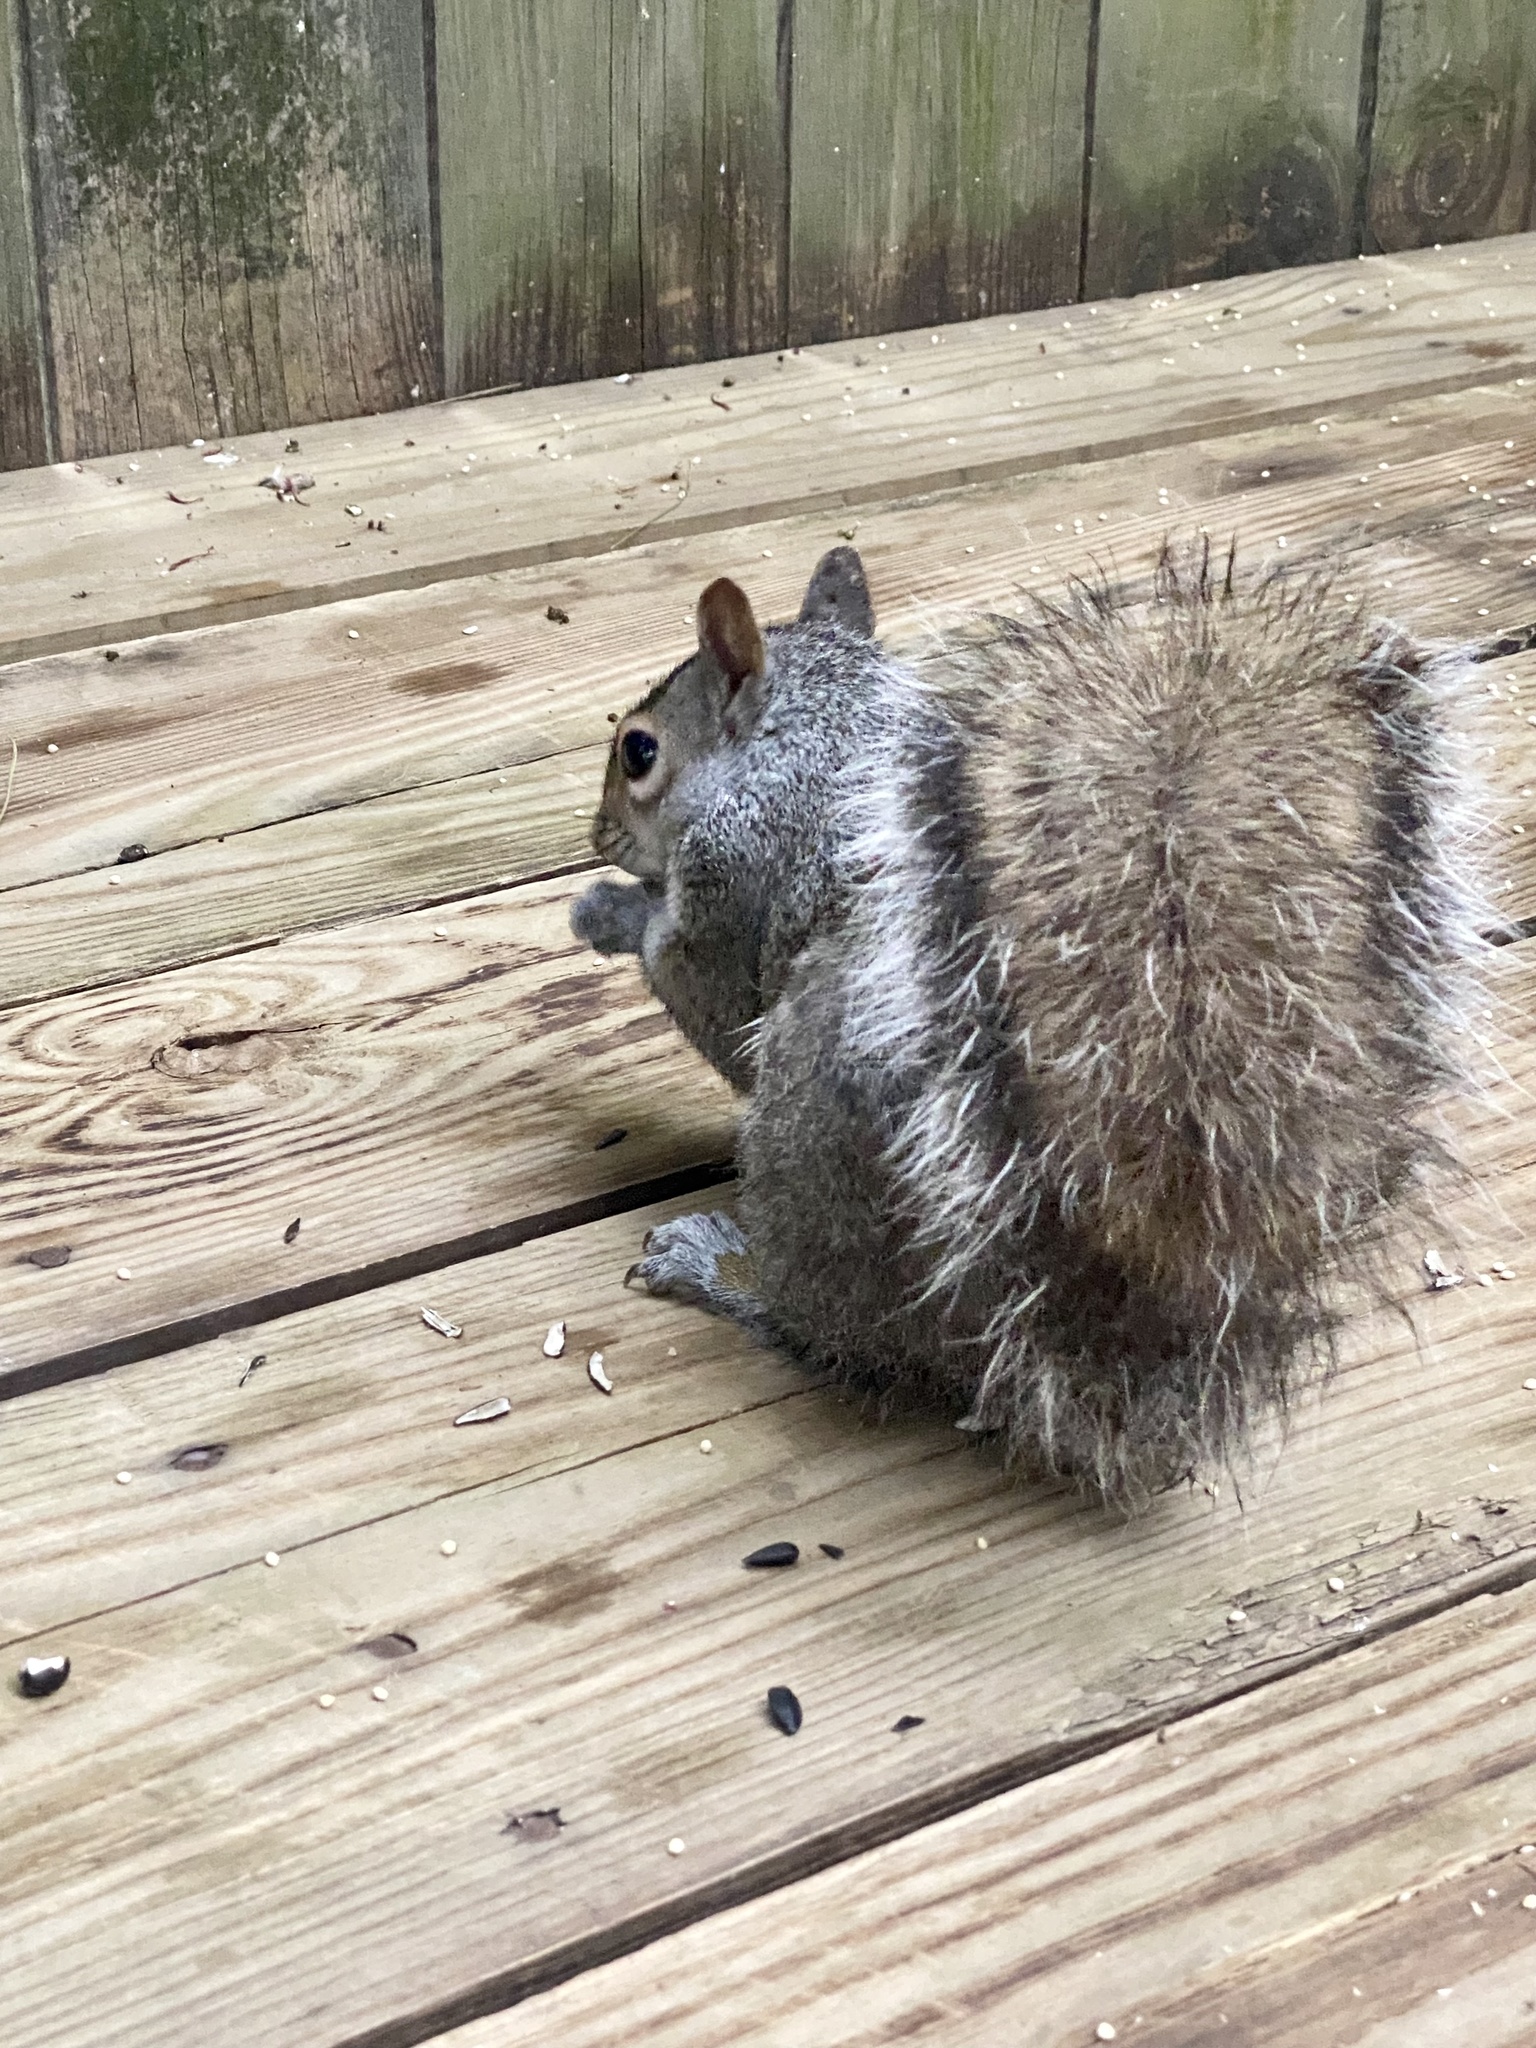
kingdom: Animalia
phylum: Chordata
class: Mammalia
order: Rodentia
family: Sciuridae
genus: Sciurus
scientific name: Sciurus carolinensis
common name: Eastern gray squirrel
